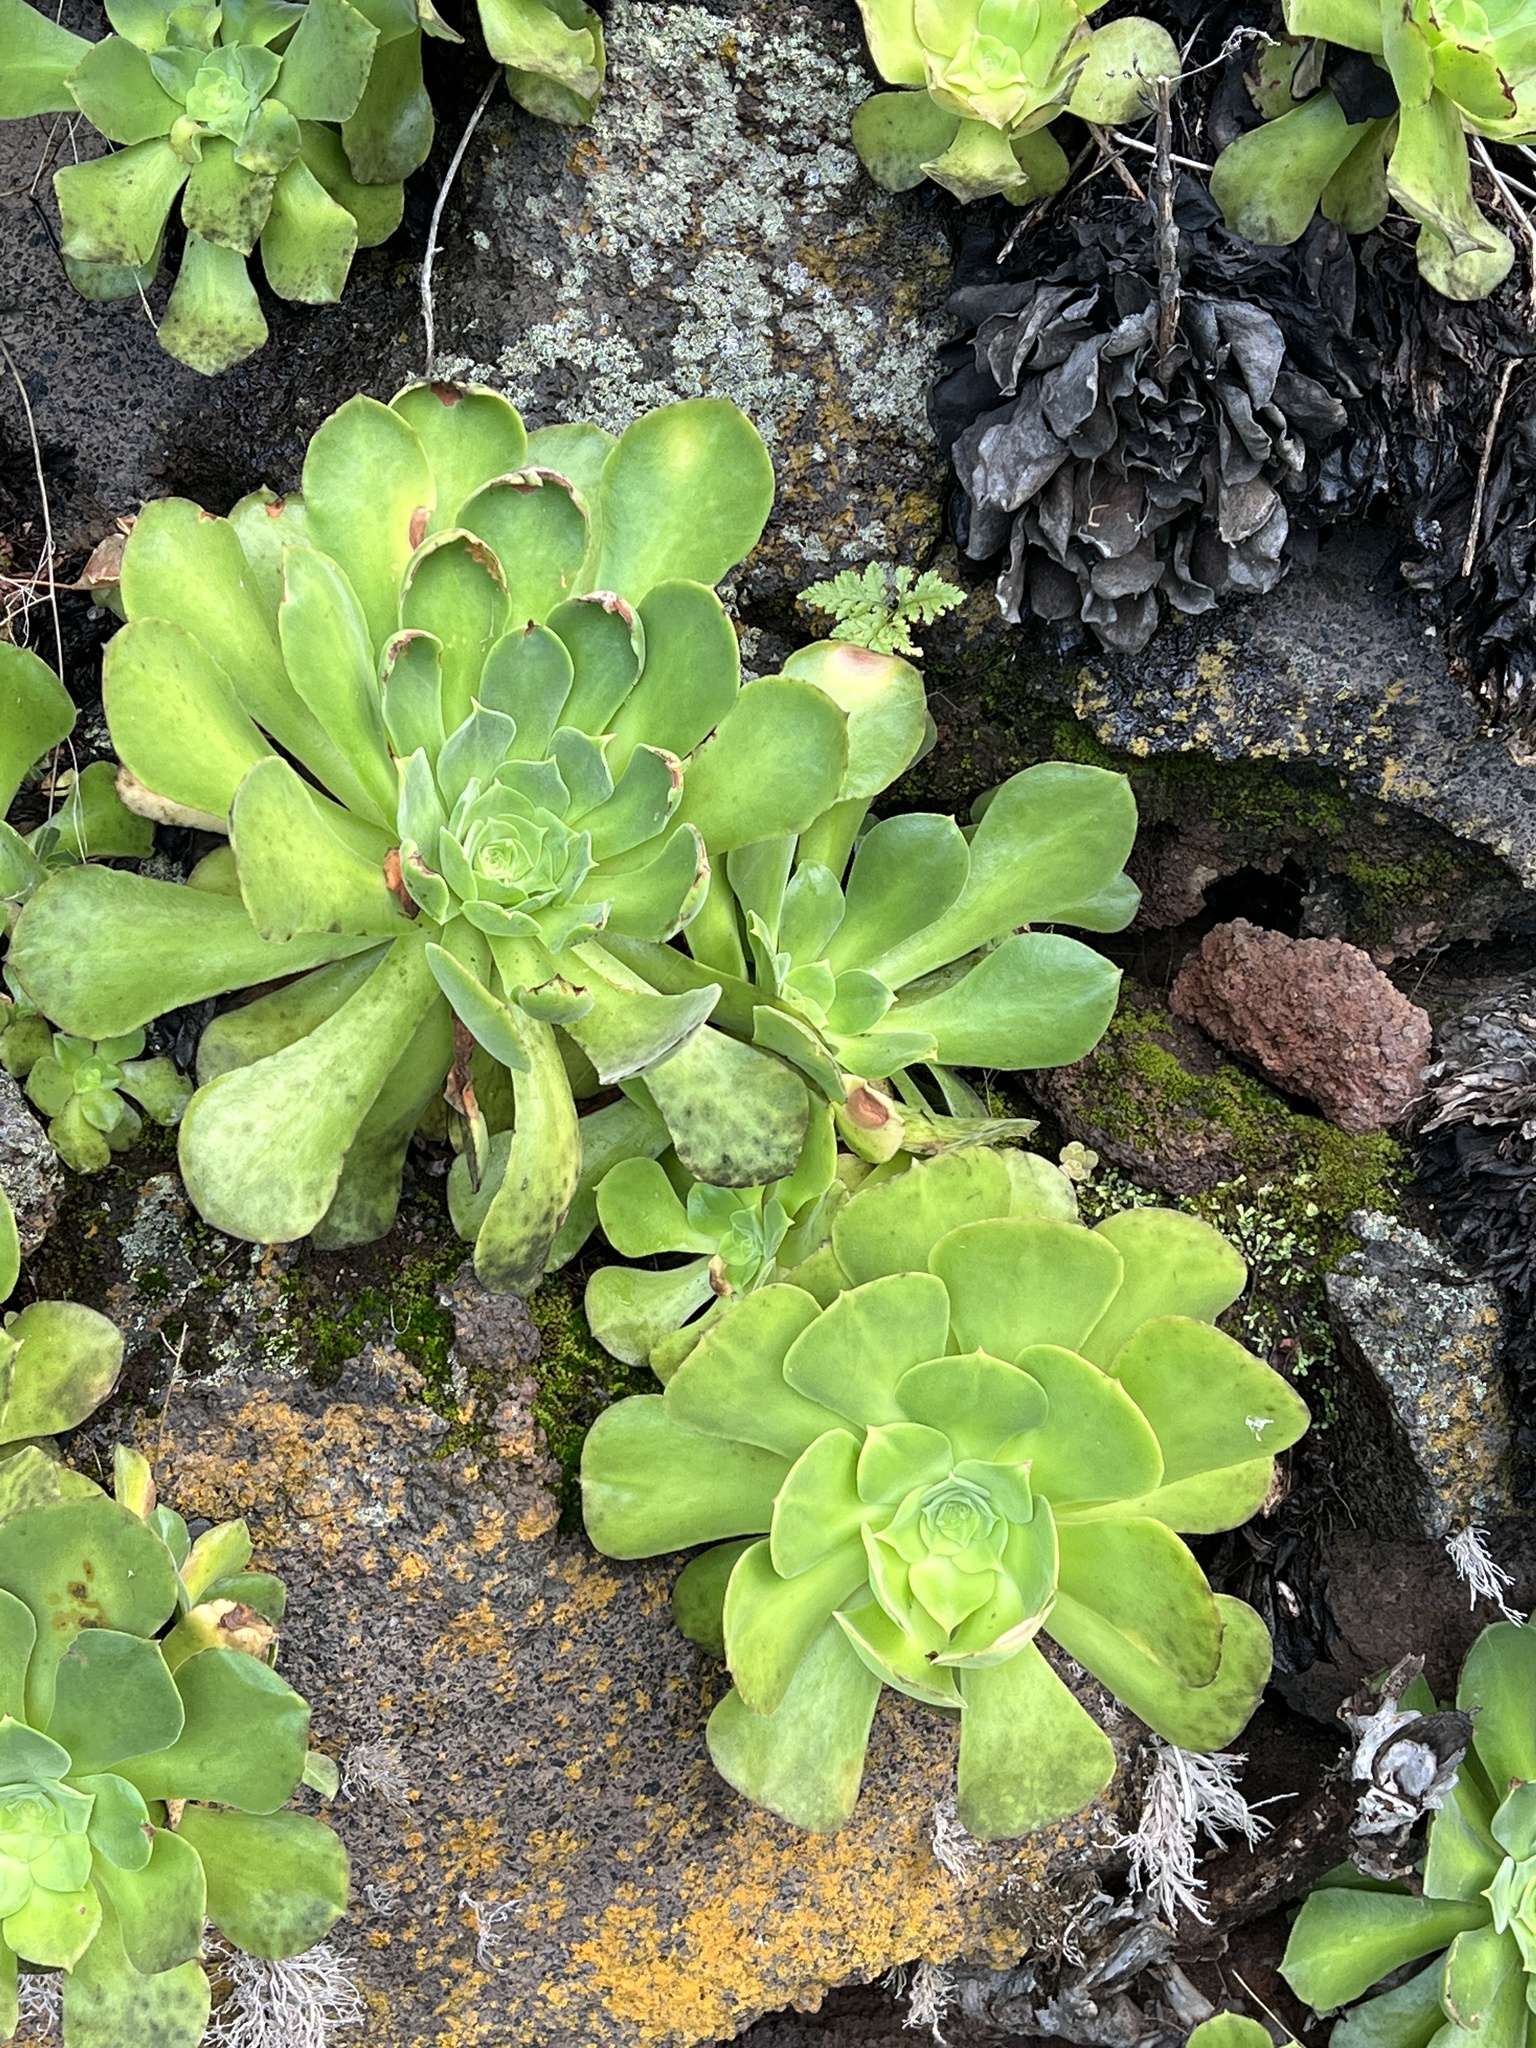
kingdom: Plantae
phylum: Tracheophyta
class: Magnoliopsida
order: Saxifragales
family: Crassulaceae
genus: Aeonium
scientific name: Aeonium canariense
